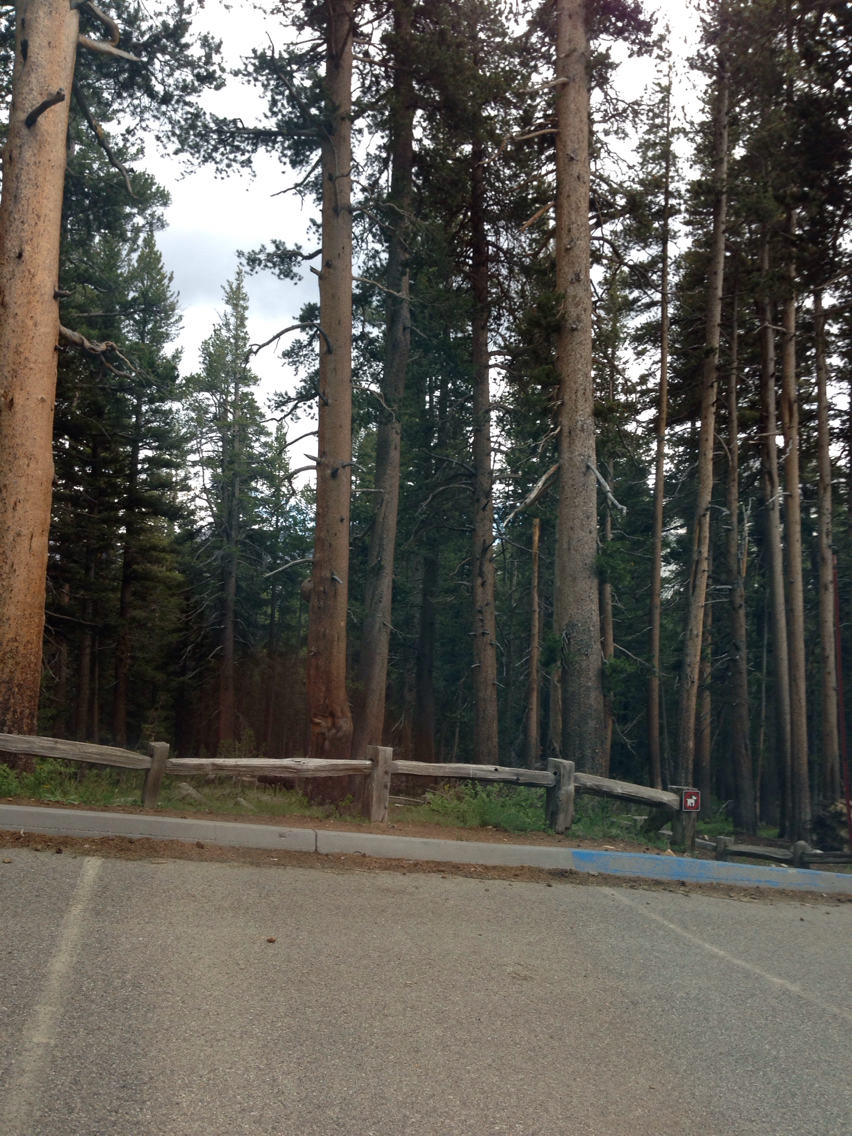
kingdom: Plantae
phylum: Tracheophyta
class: Pinopsida
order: Pinales
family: Pinaceae
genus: Pinus
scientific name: Pinus contorta
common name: Lodgepole pine
